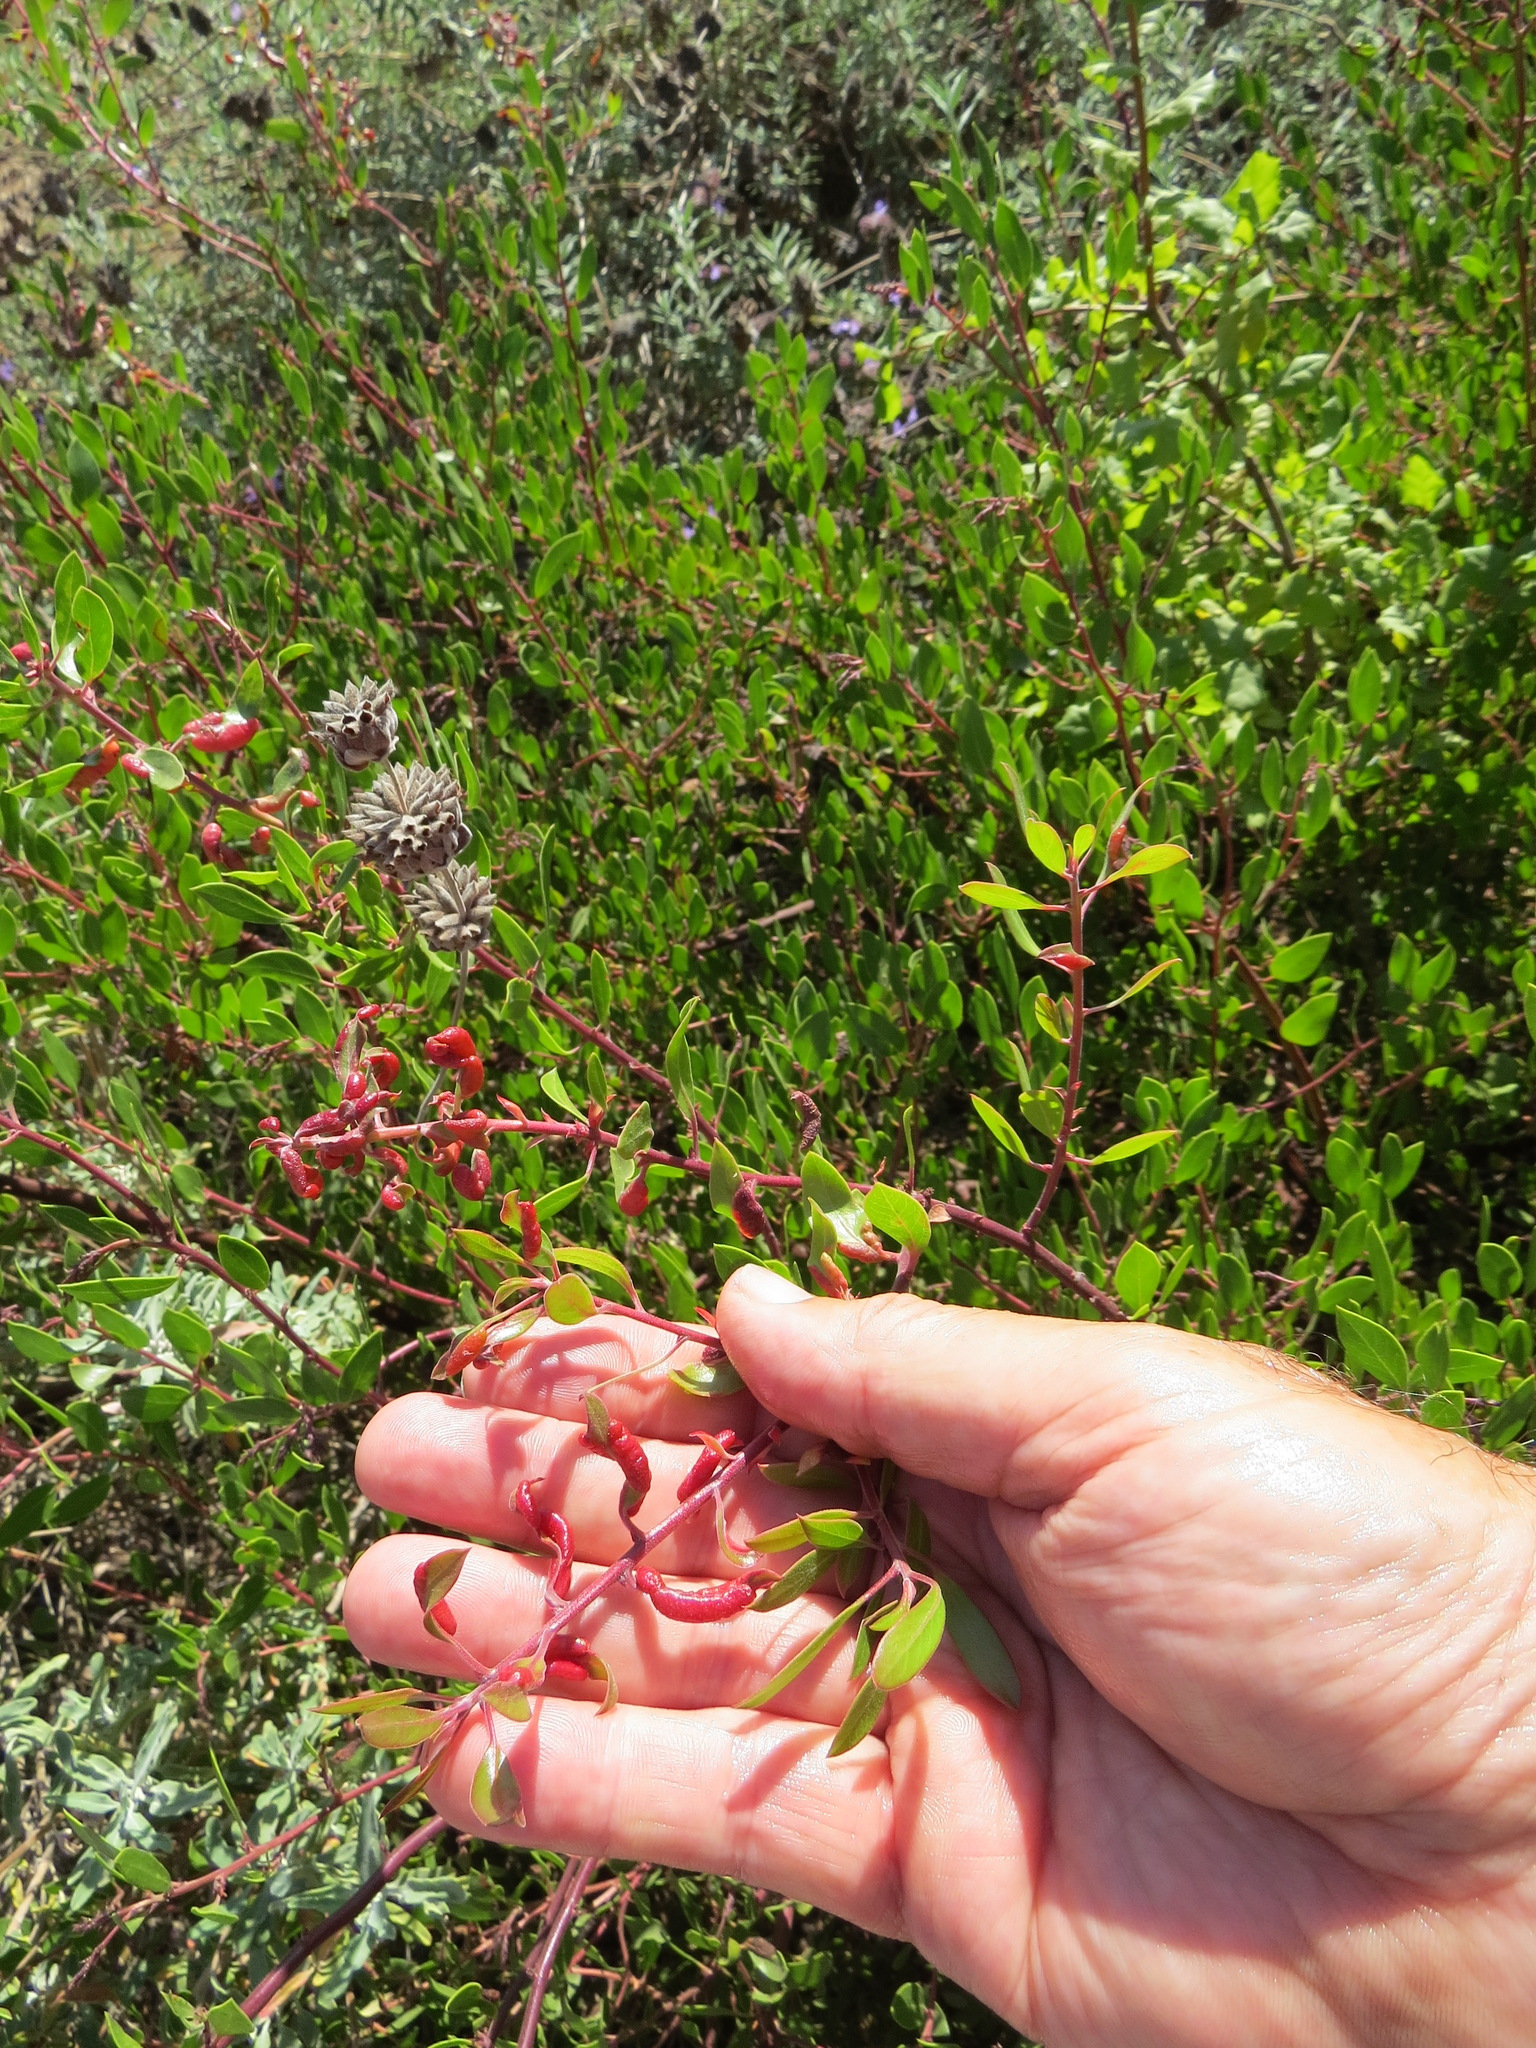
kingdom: Animalia
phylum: Arthropoda
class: Insecta
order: Hemiptera
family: Aphididae
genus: Tamalia
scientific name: Tamalia coweni
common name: Manzanita leafgall aphid
